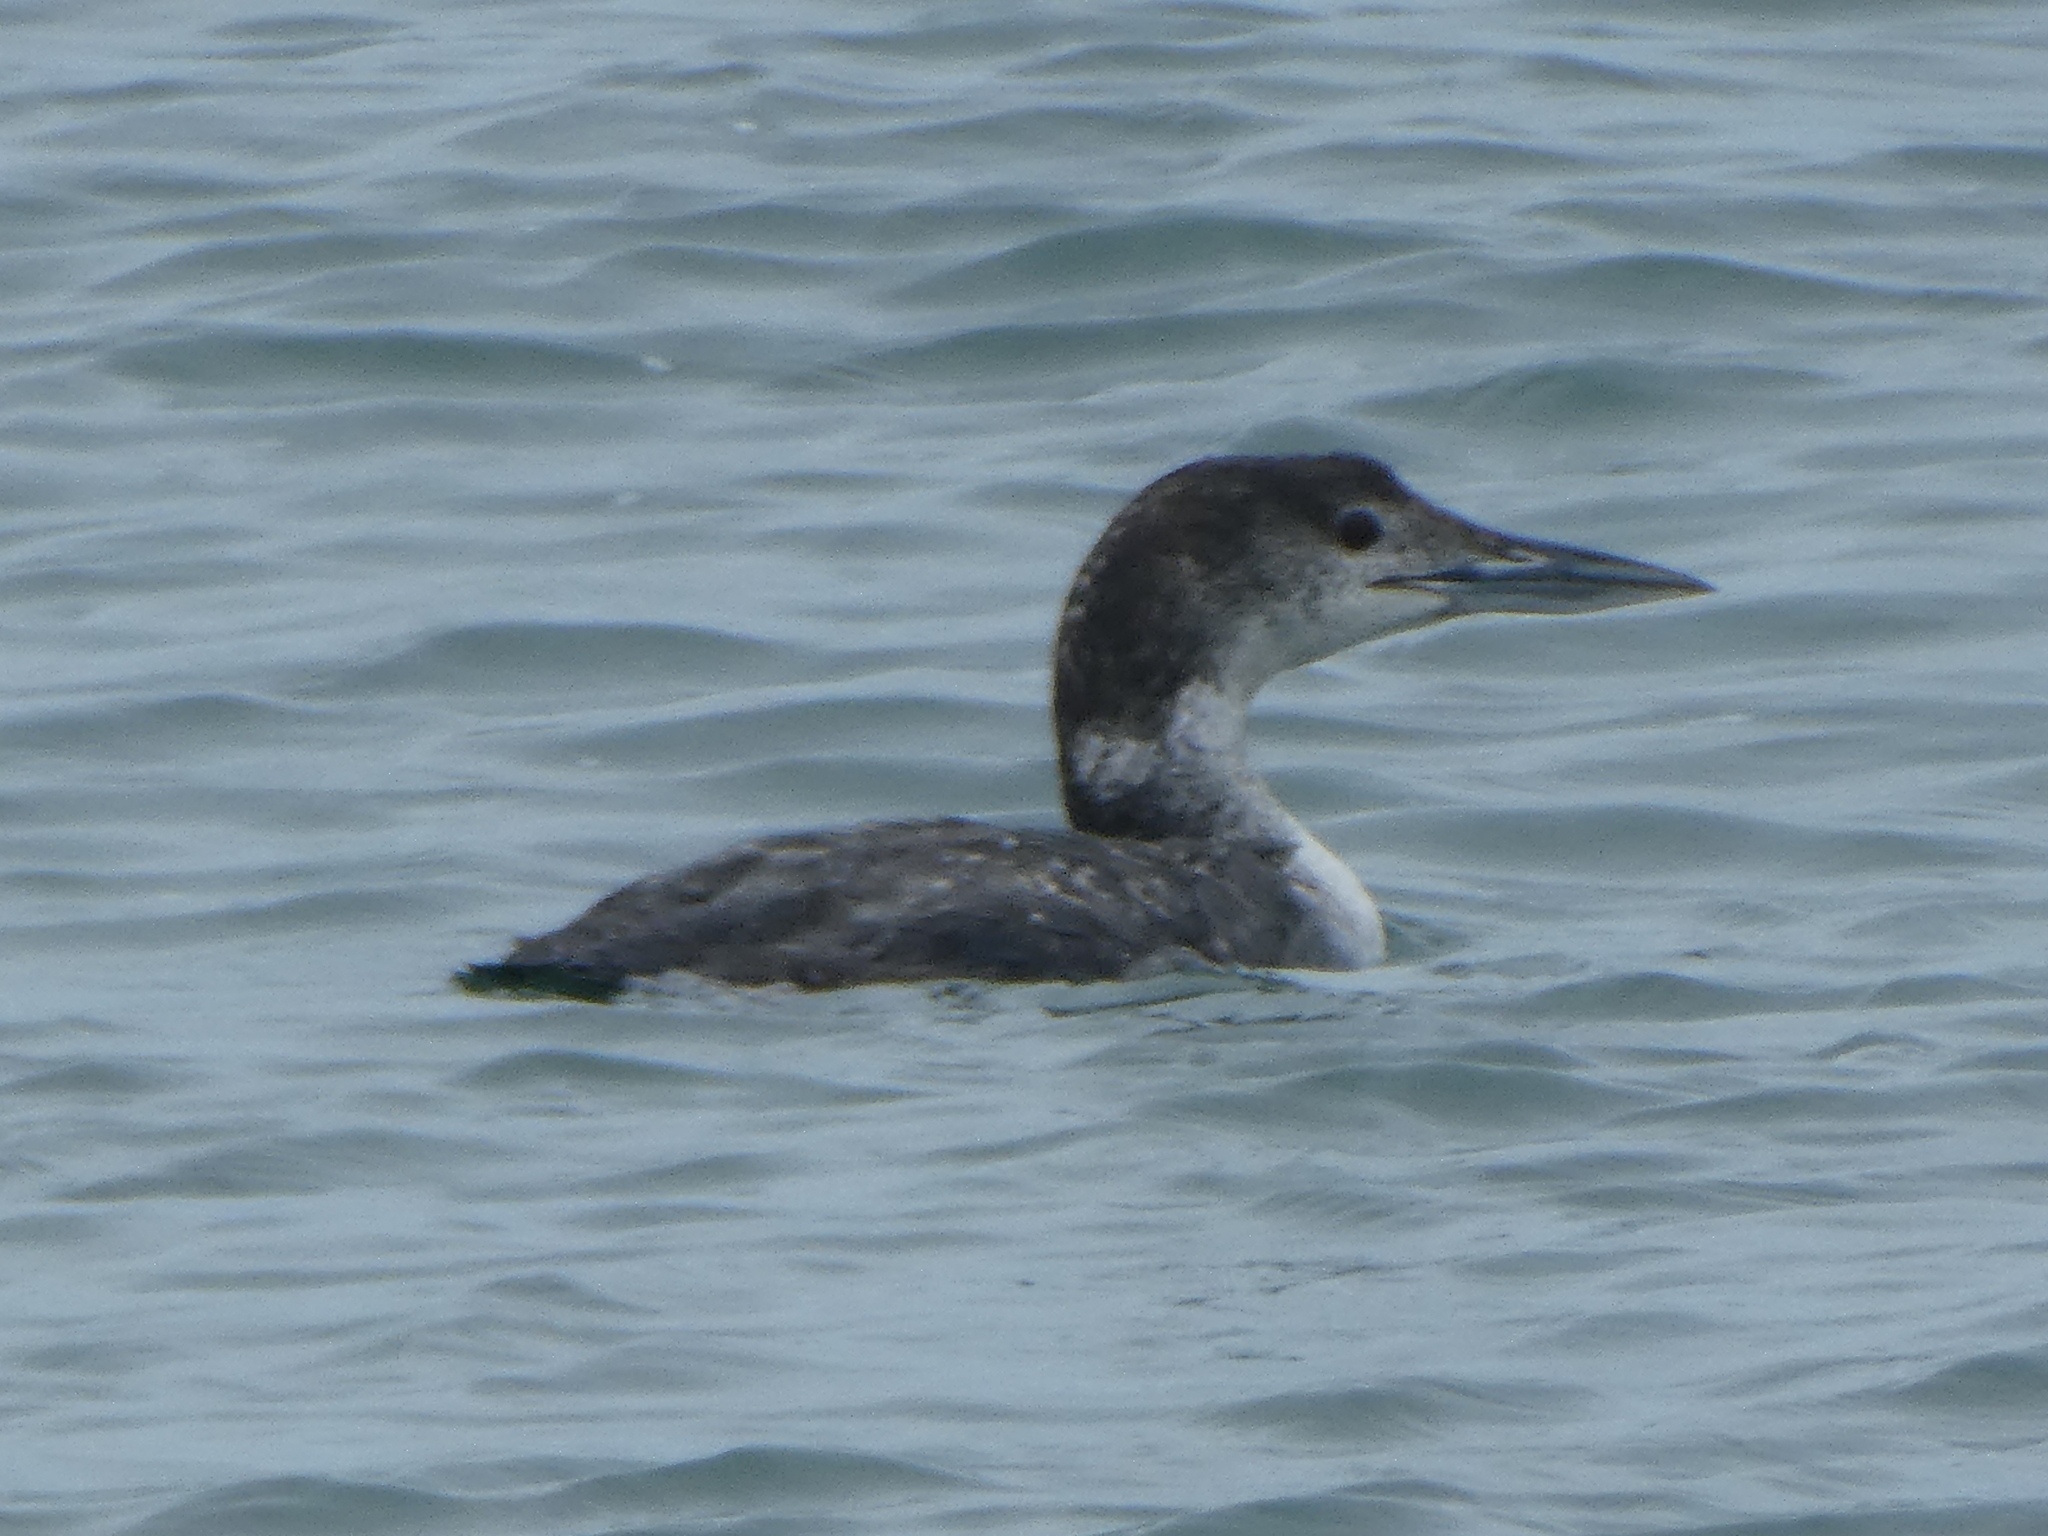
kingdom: Animalia
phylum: Chordata
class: Aves
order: Gaviiformes
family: Gaviidae
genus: Gavia
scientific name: Gavia immer
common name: Common loon
